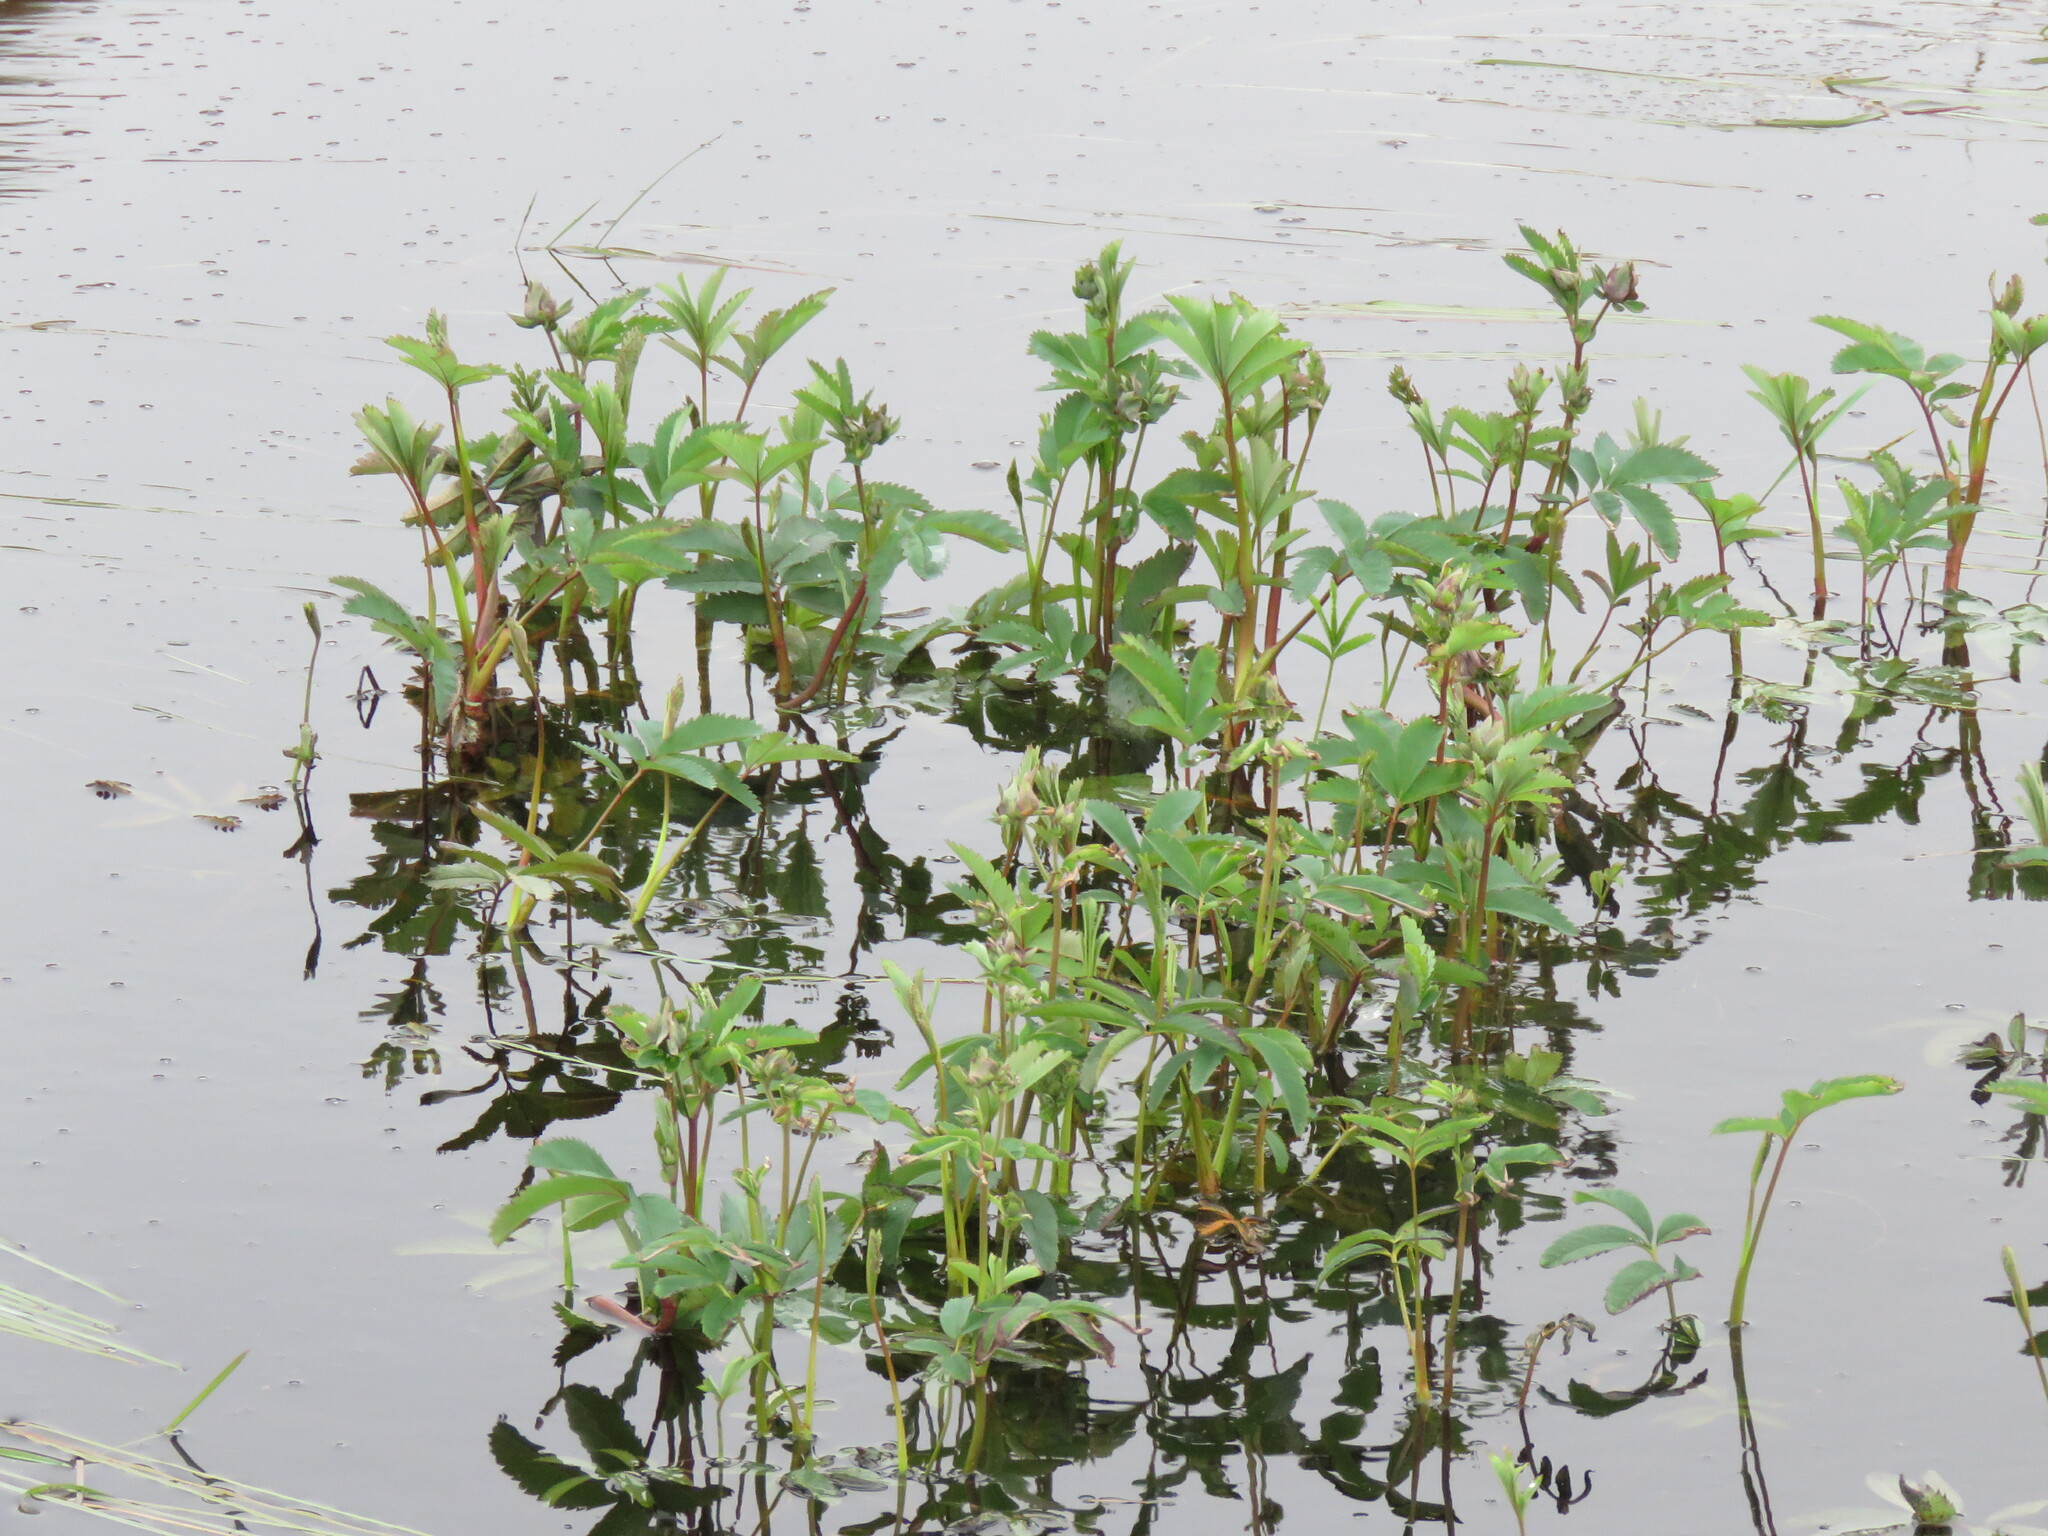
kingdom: Plantae
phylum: Tracheophyta
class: Magnoliopsida
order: Rosales
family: Rosaceae
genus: Comarum
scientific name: Comarum palustre
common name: Marsh cinquefoil
